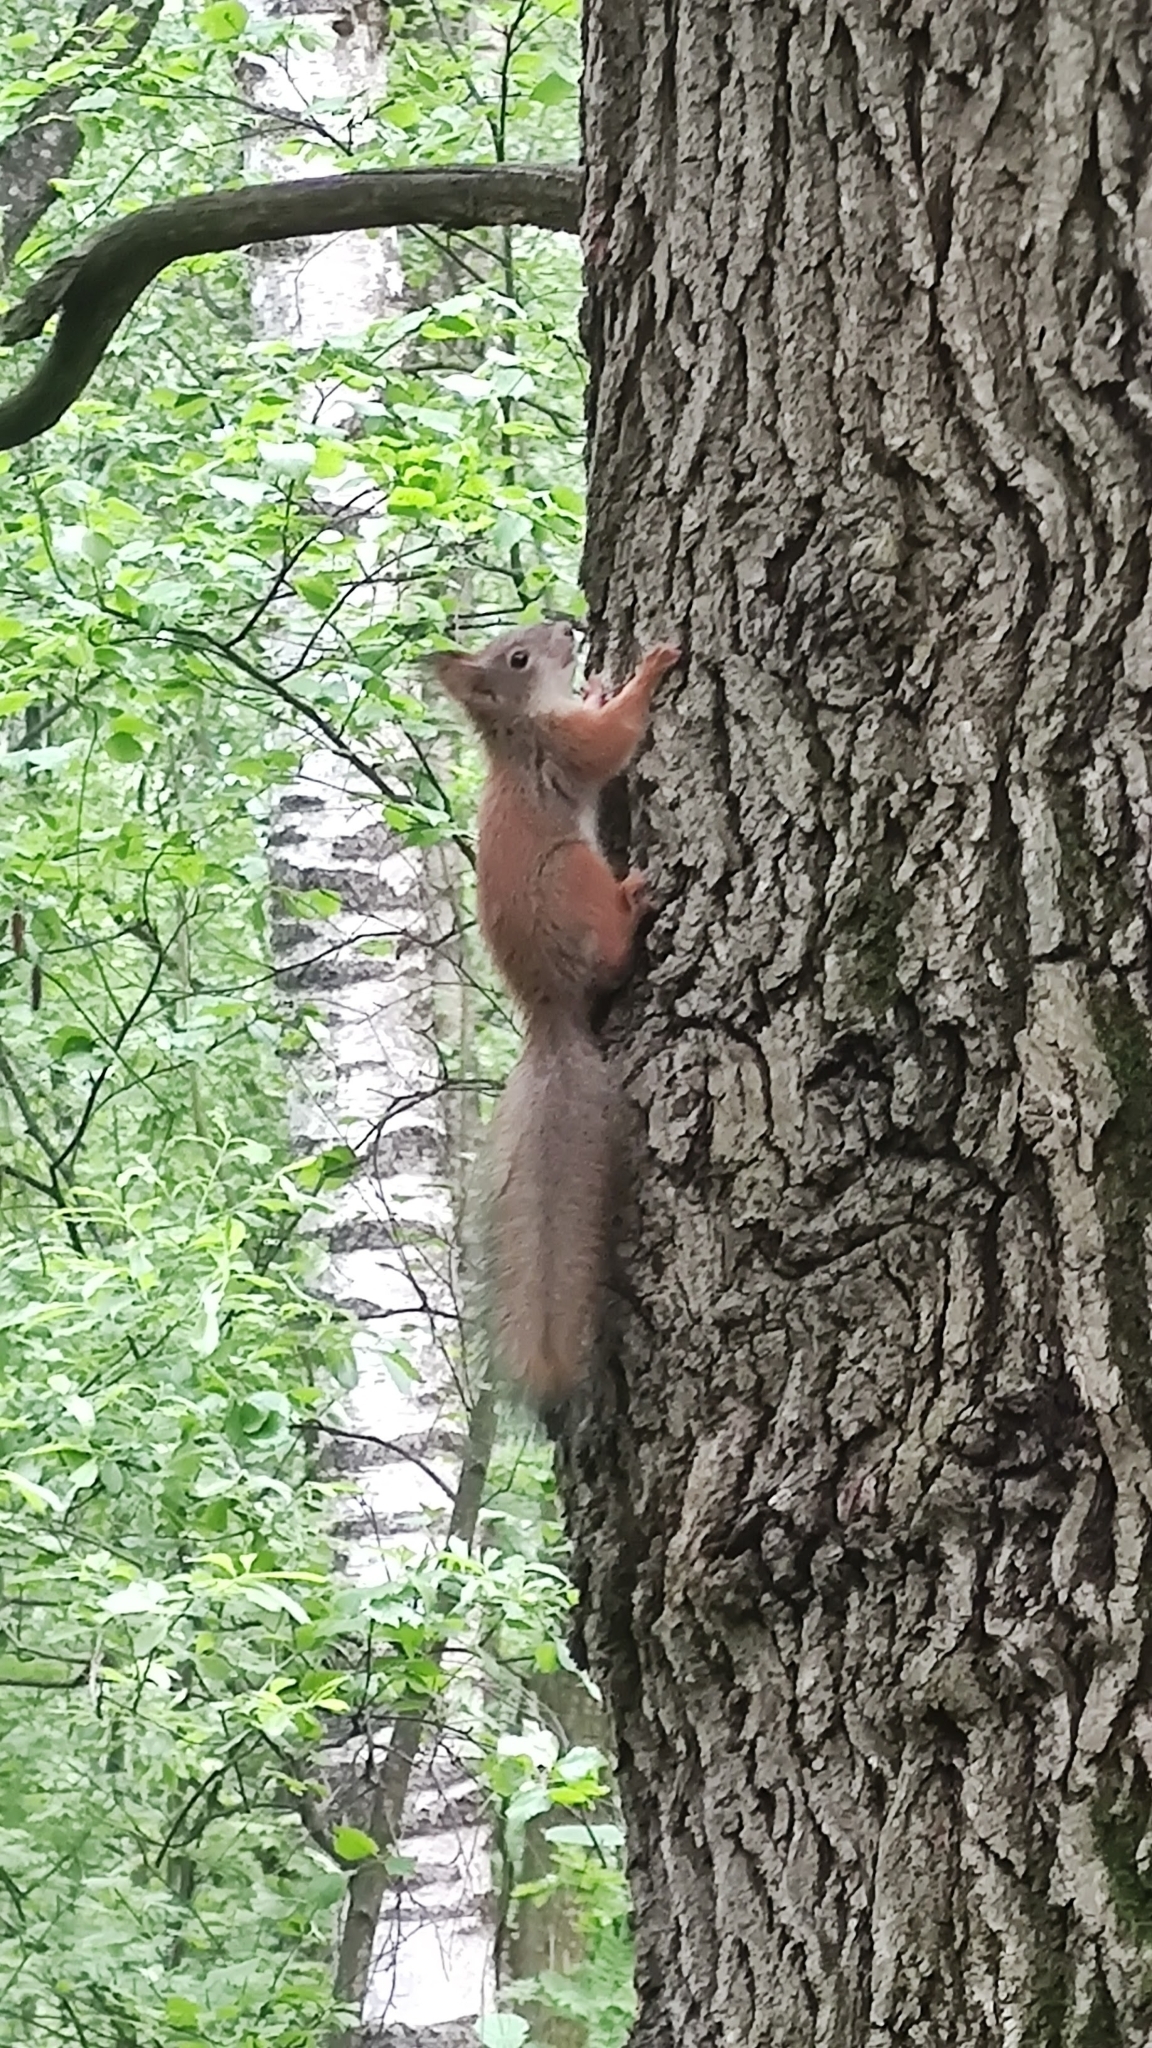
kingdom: Animalia
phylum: Chordata
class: Mammalia
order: Rodentia
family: Sciuridae
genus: Sciurus
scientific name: Sciurus vulgaris
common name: Eurasian red squirrel
